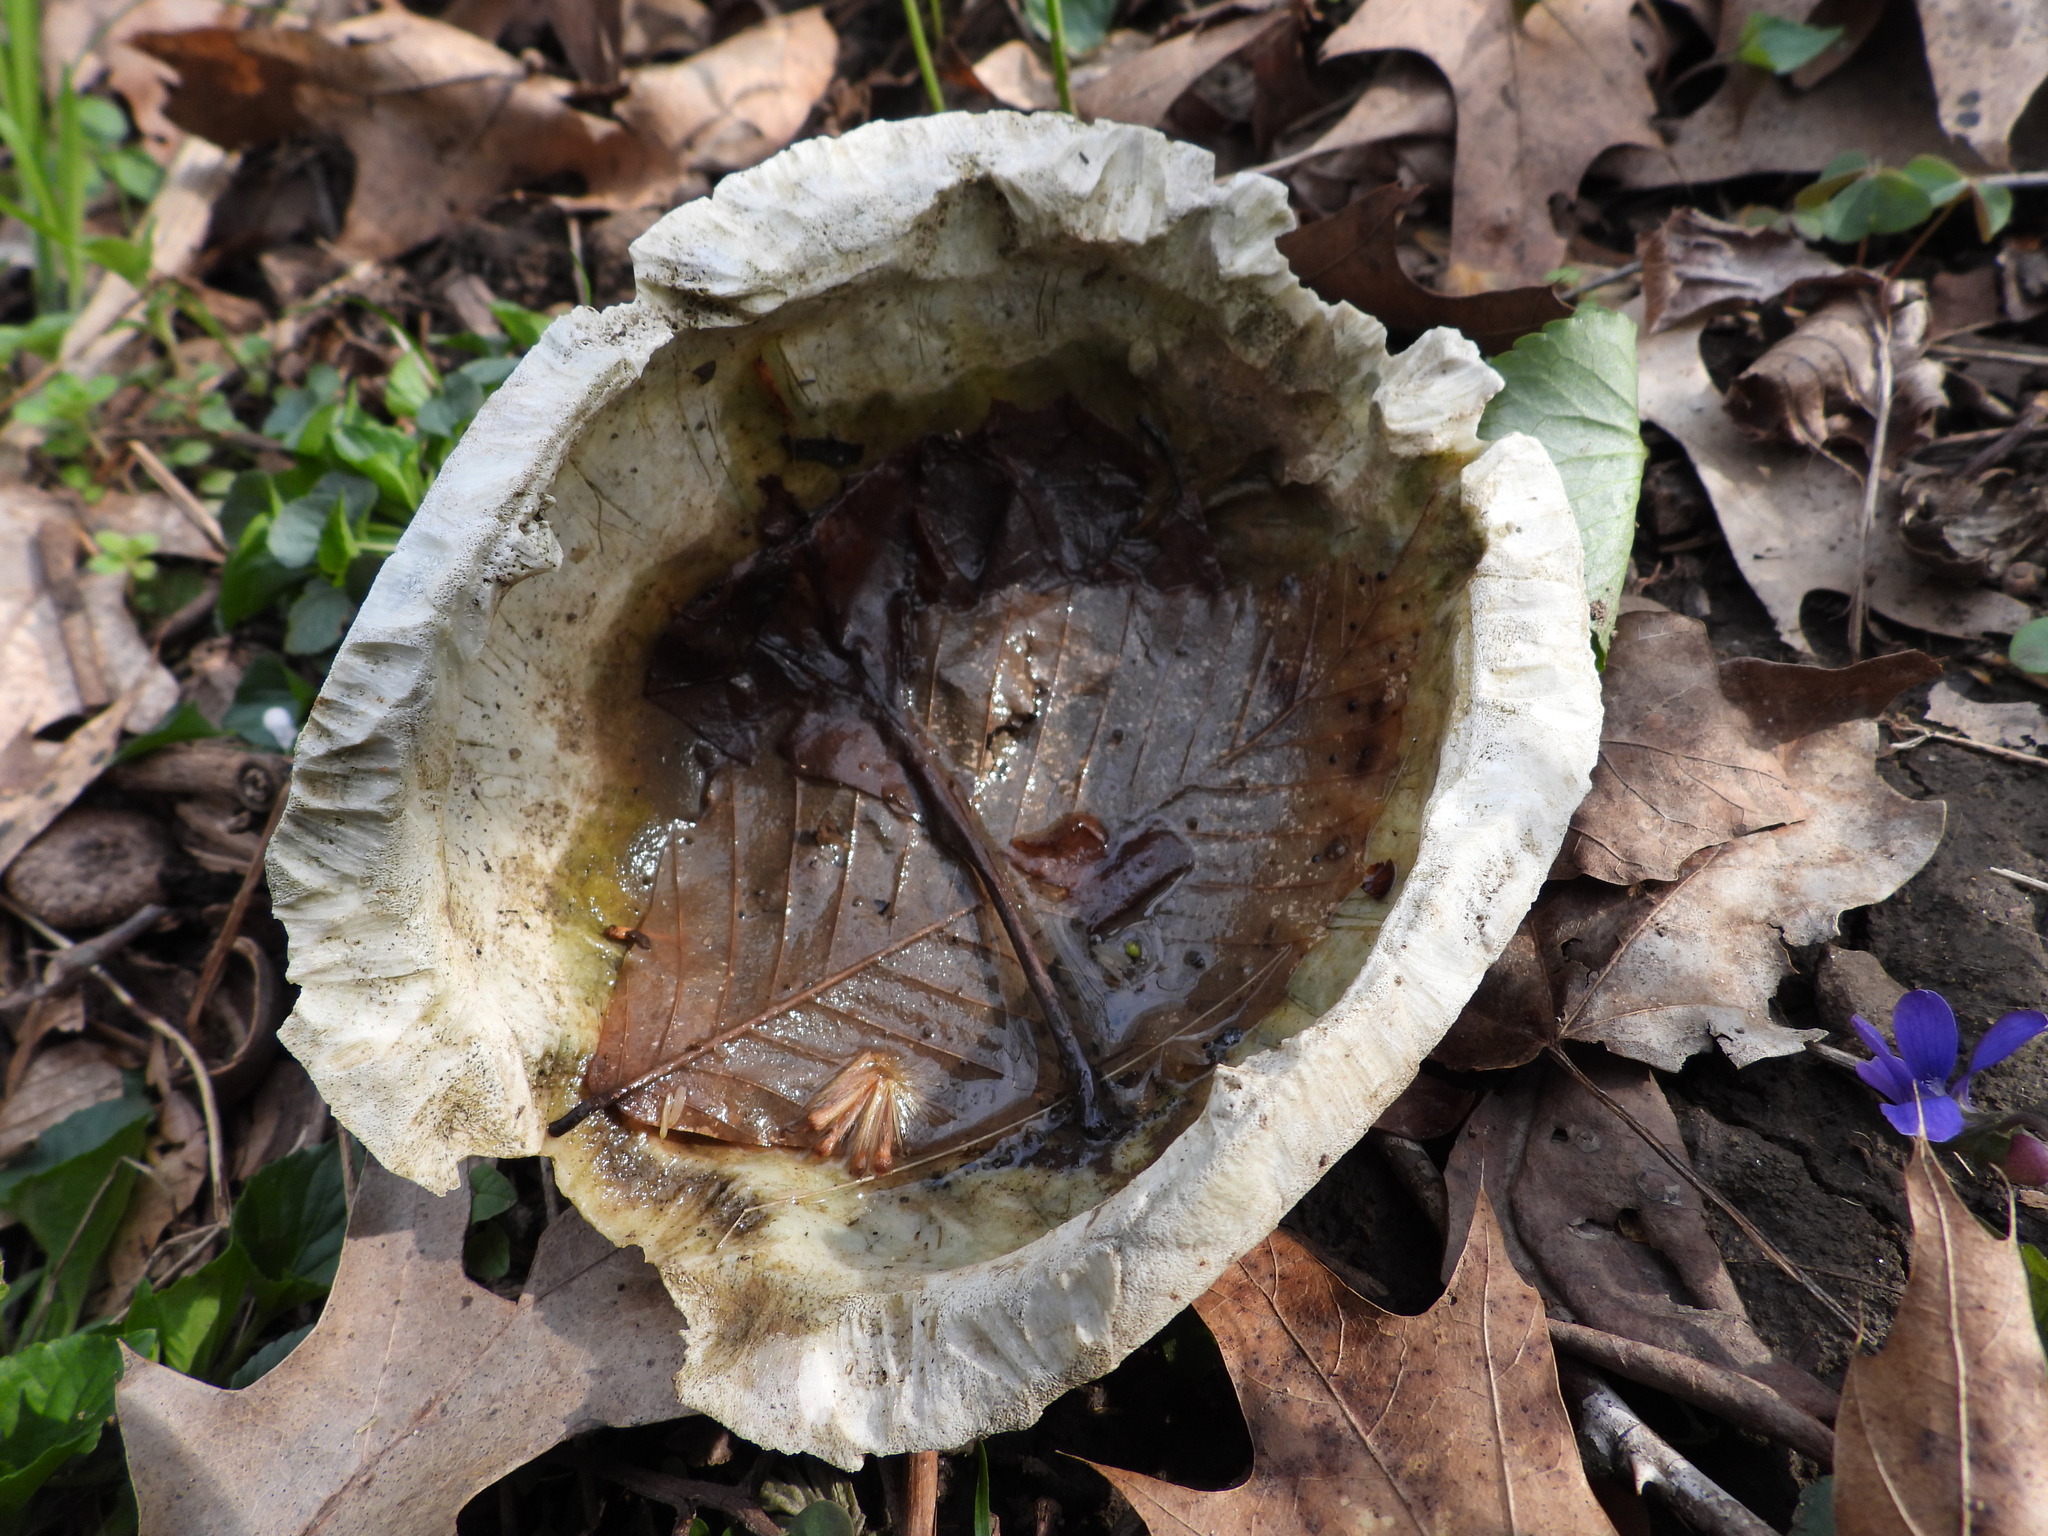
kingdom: Animalia
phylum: Chordata
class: Testudines
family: Emydidae
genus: Terrapene
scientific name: Terrapene carolina
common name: Common box turtle
